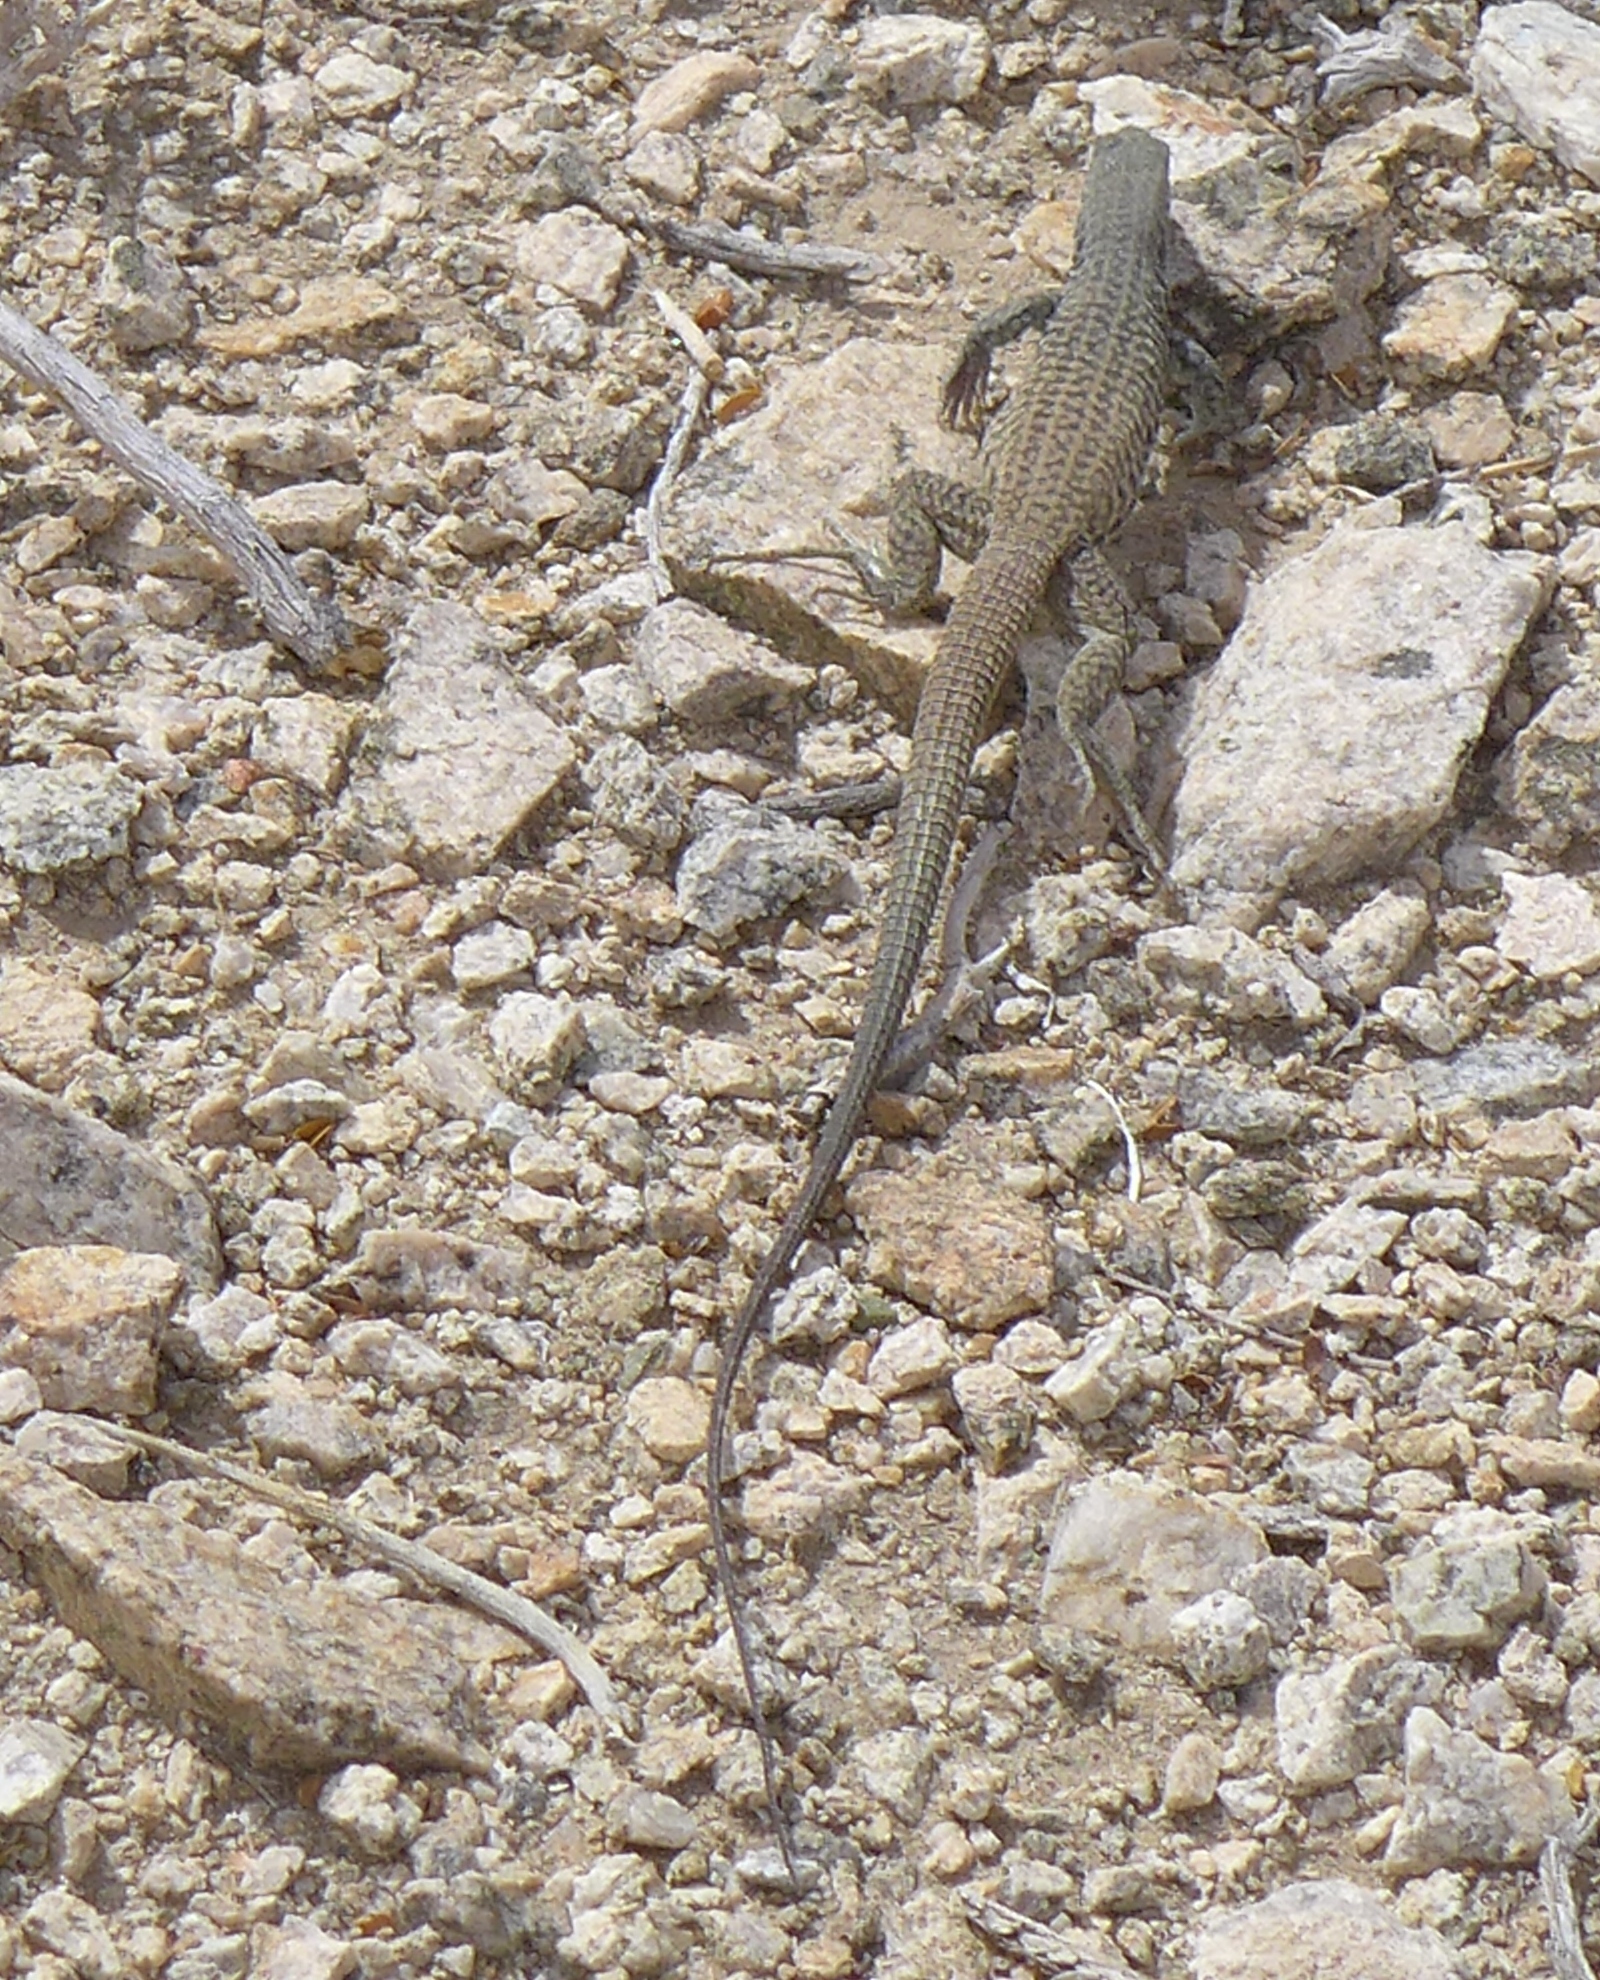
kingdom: Animalia
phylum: Chordata
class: Squamata
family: Teiidae
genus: Aspidoscelis
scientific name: Aspidoscelis tigris
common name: Tiger whiptail
